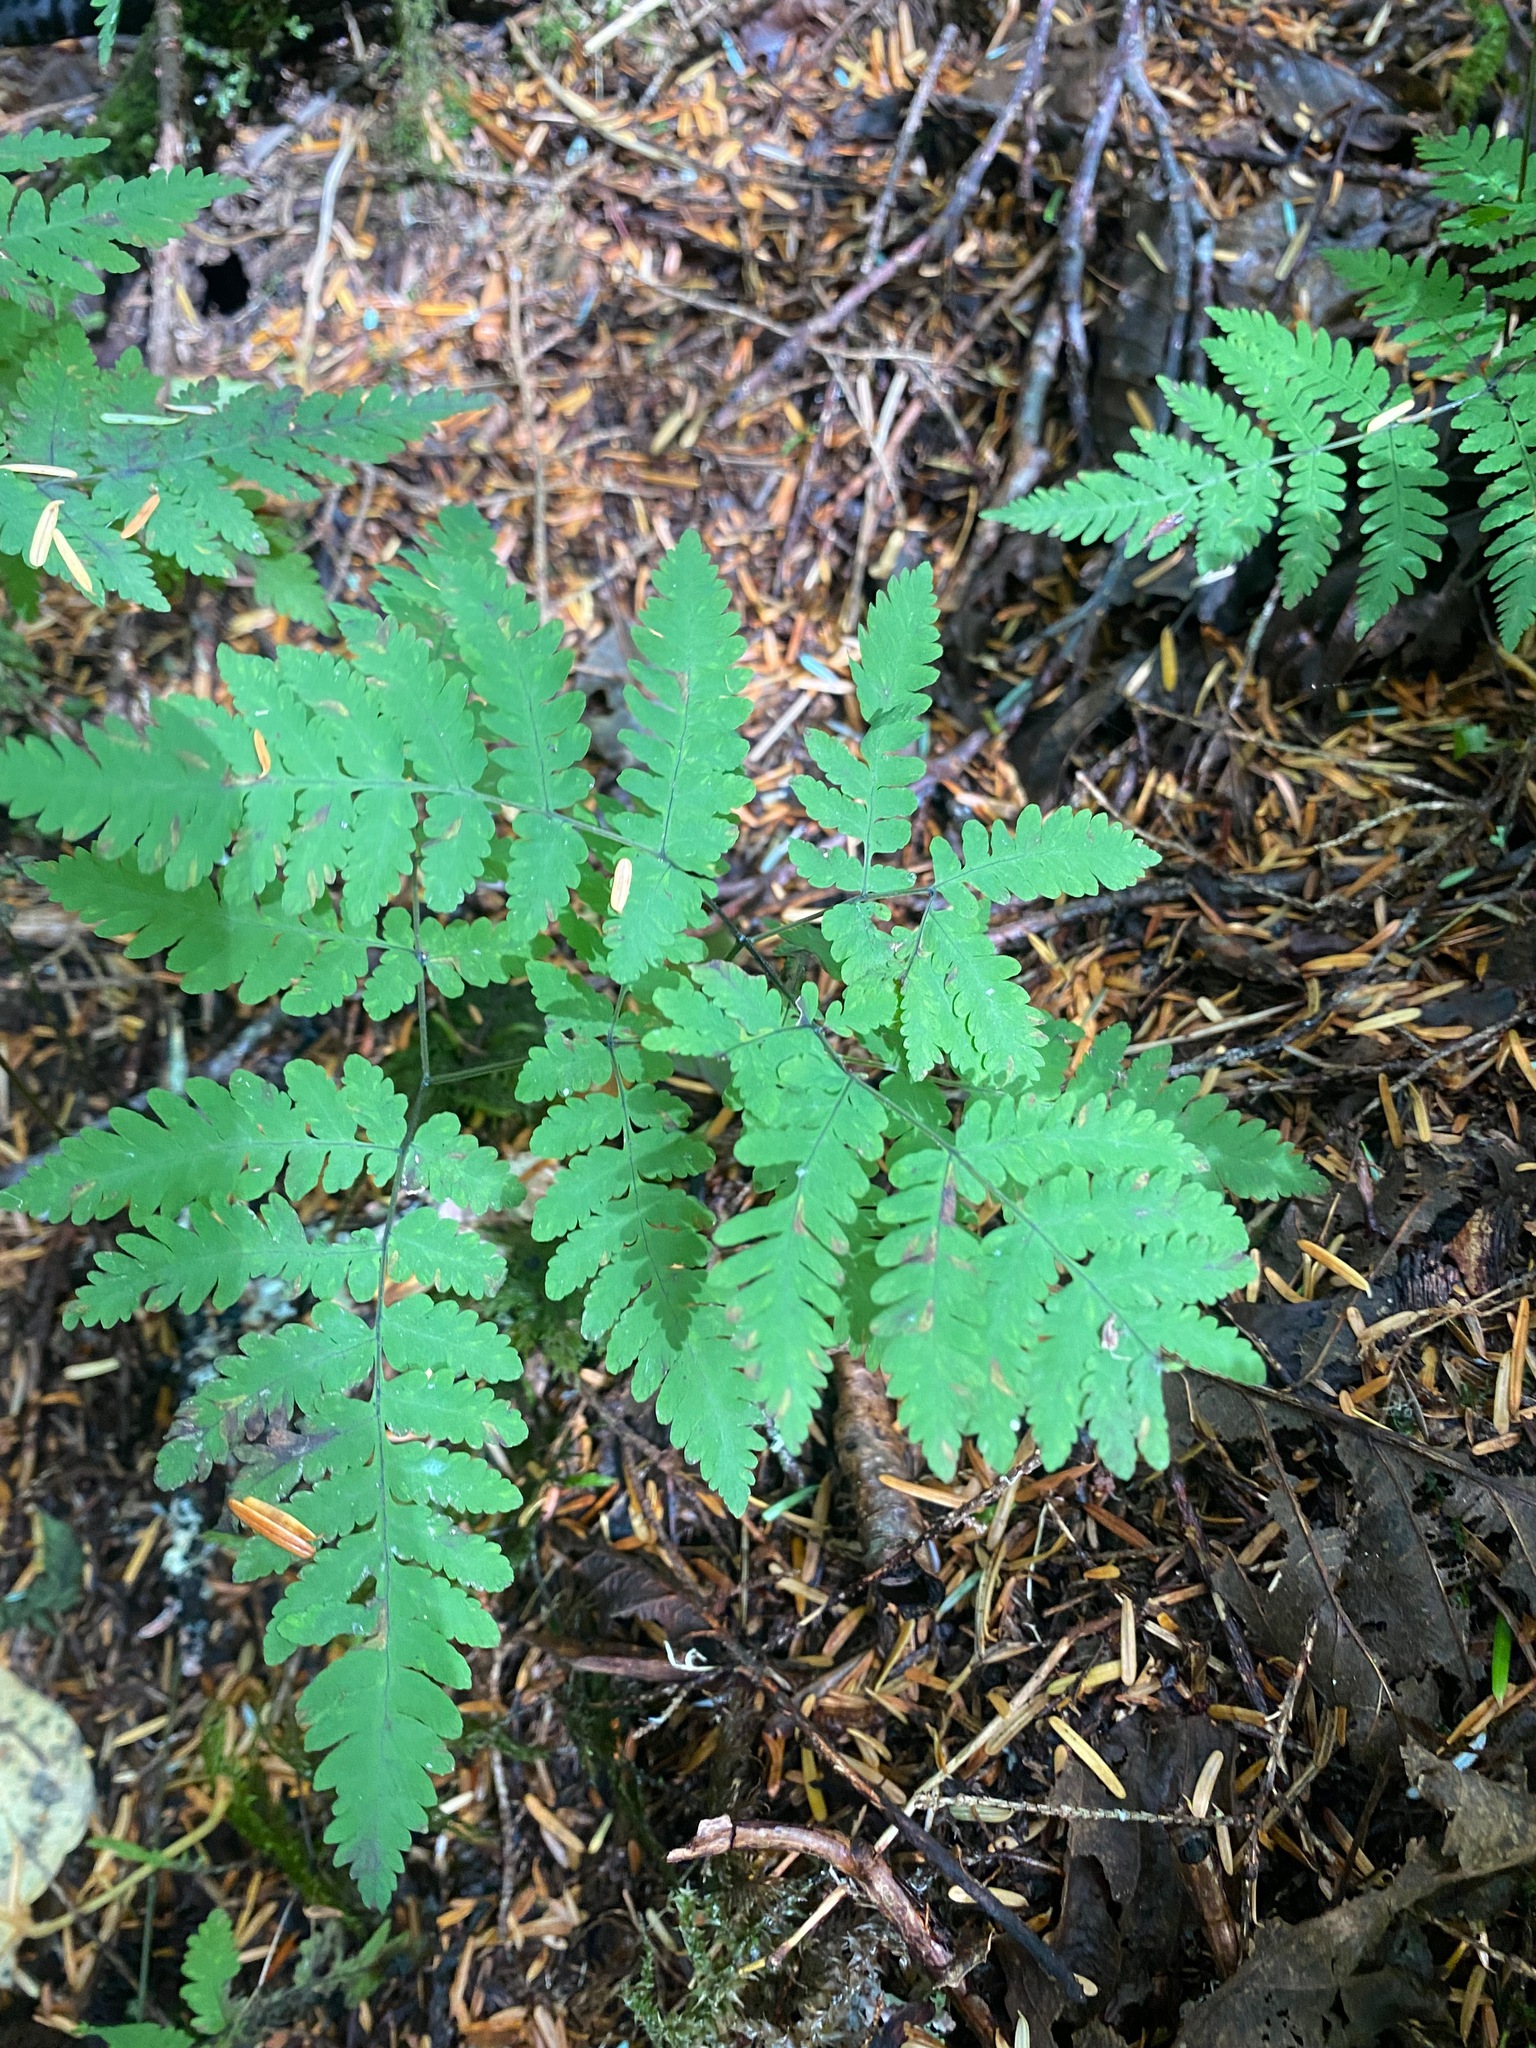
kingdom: Plantae
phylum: Tracheophyta
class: Polypodiopsida
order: Polypodiales
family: Cystopteridaceae
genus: Gymnocarpium
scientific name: Gymnocarpium dryopteris
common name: Oak fern
